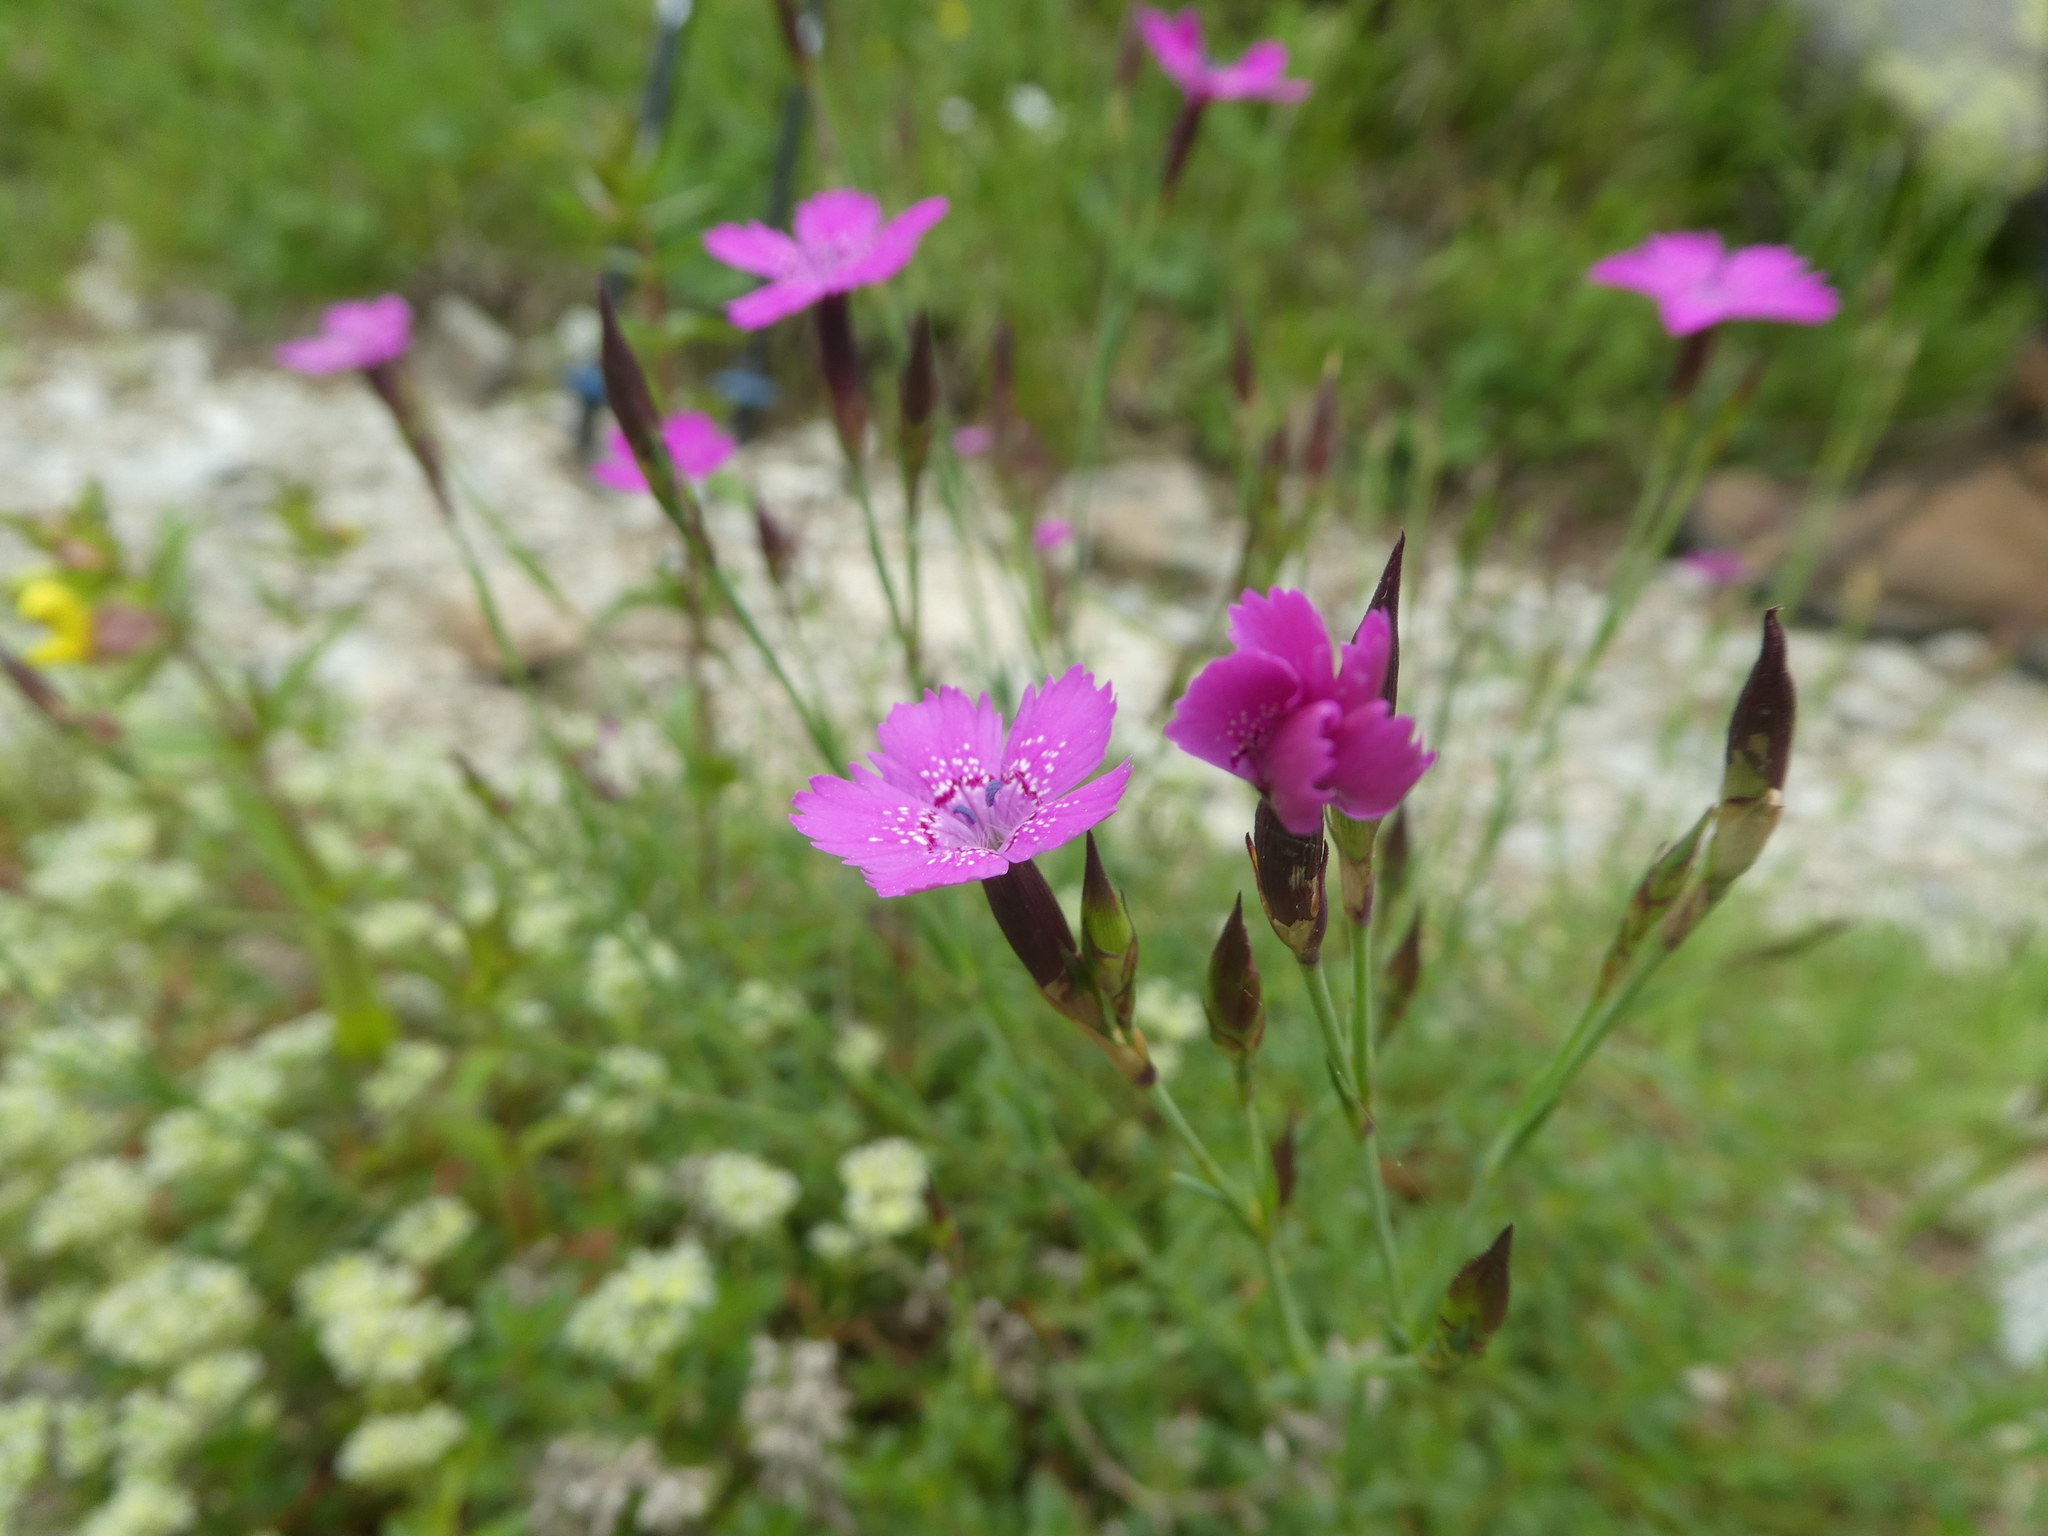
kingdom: Plantae
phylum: Tracheophyta
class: Magnoliopsida
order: Caryophyllales
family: Caryophyllaceae
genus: Dianthus
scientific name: Dianthus deltoides
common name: Maiden pink
